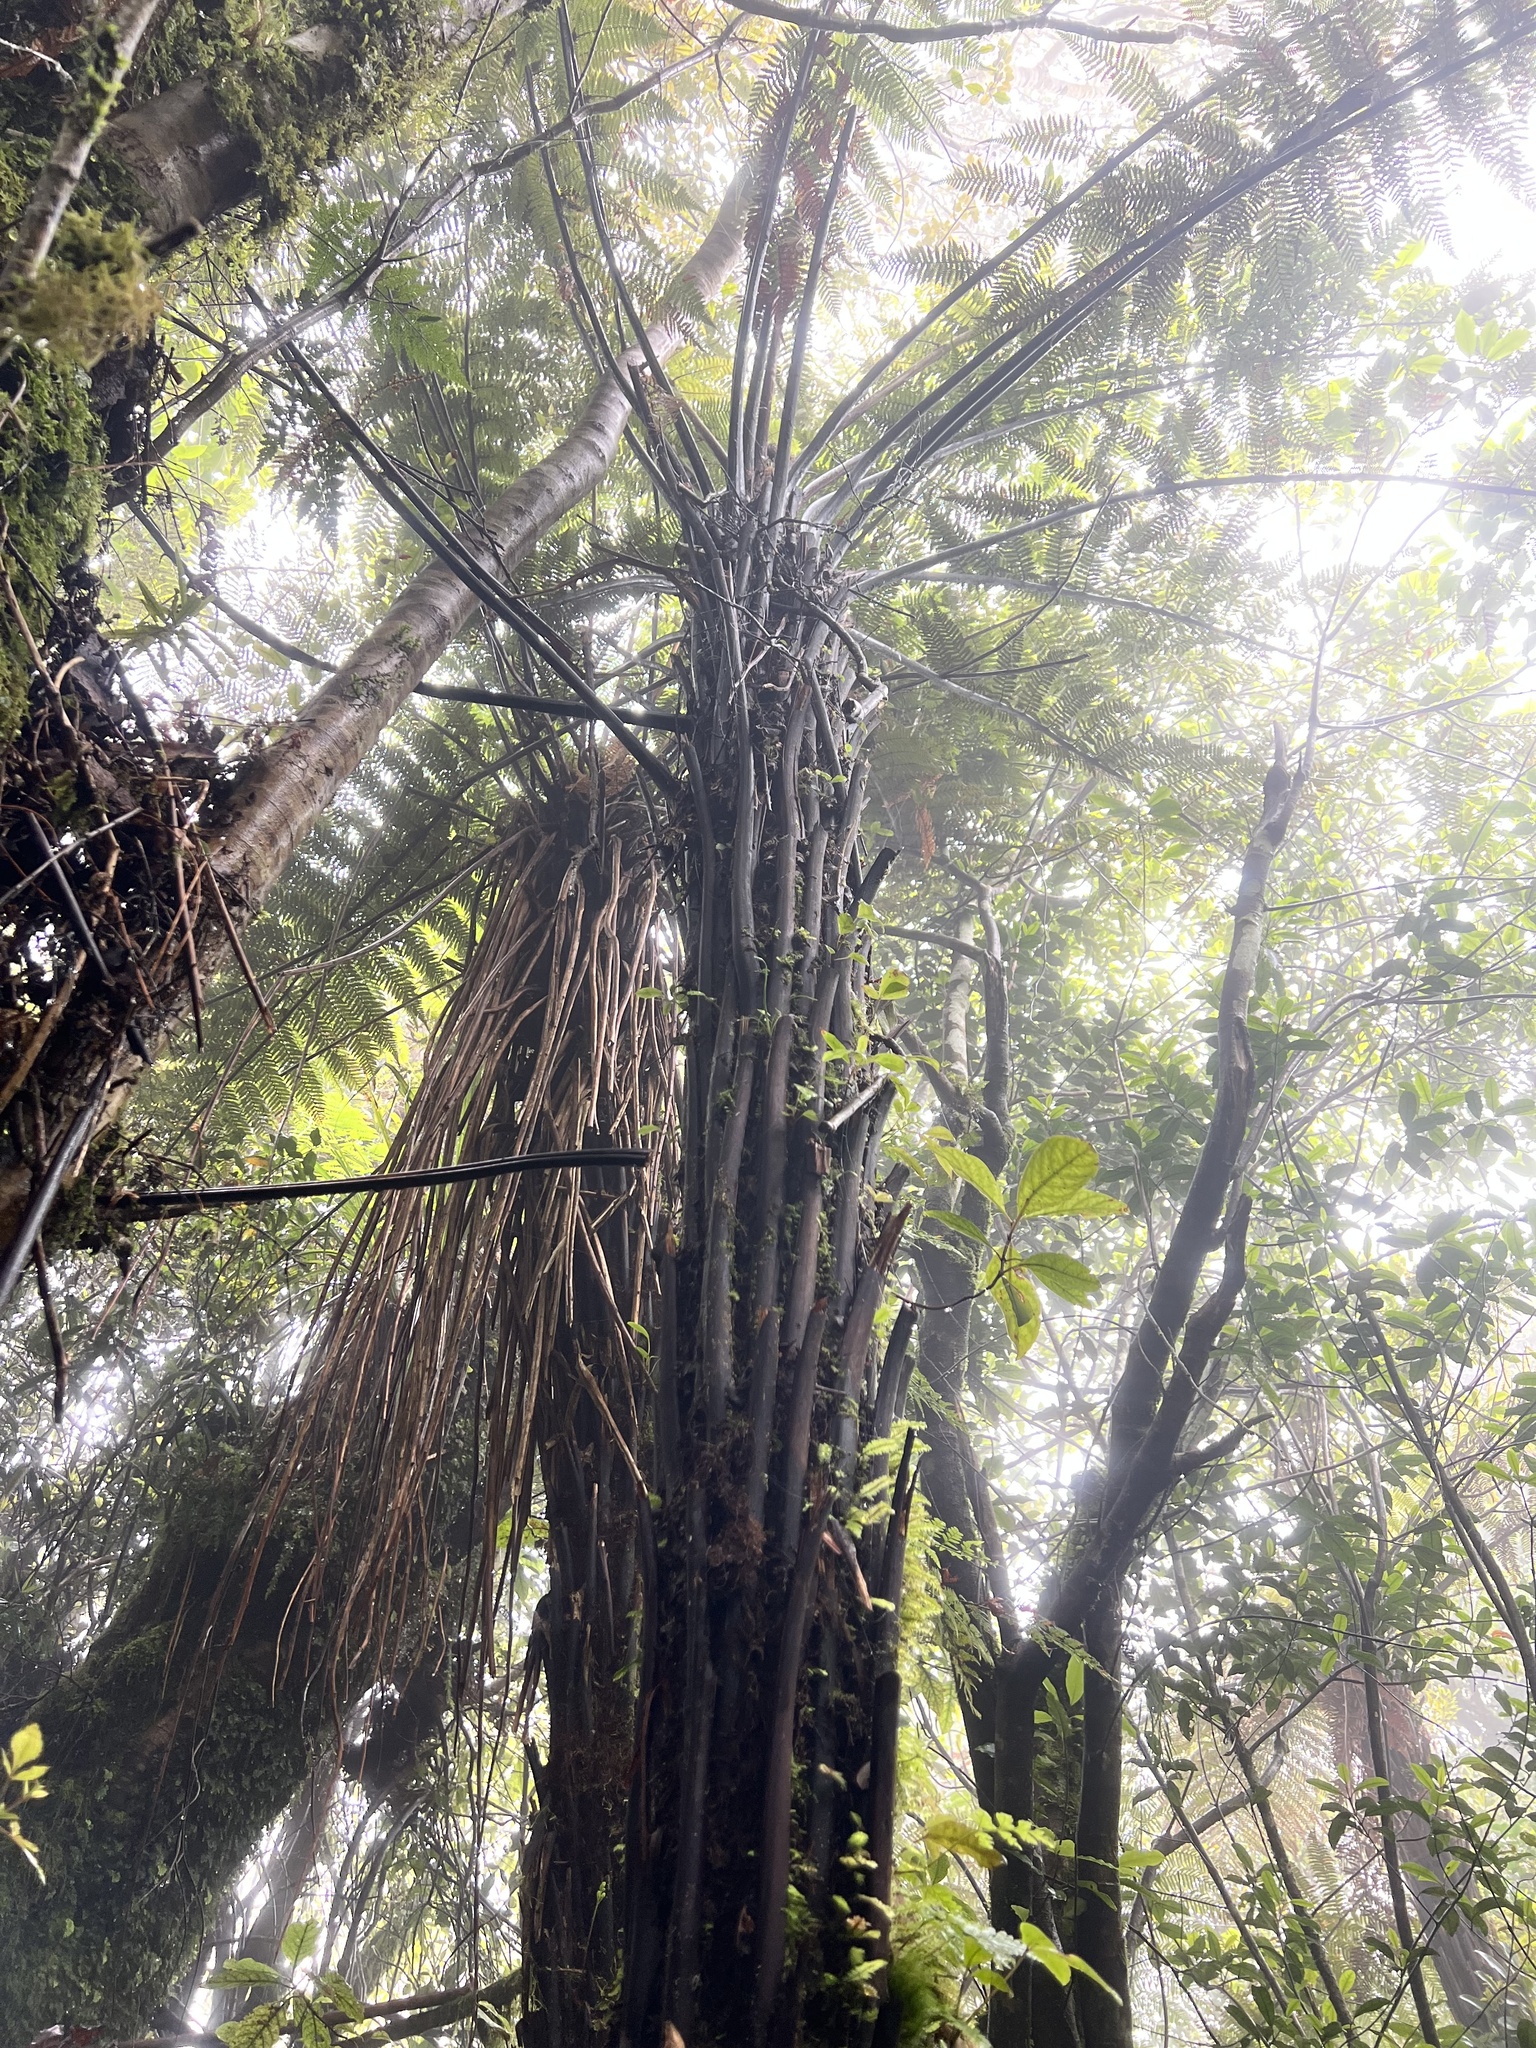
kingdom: Plantae
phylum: Tracheophyta
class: Polypodiopsida
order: Cyatheales
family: Dicksoniaceae
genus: Dicksonia
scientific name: Dicksonia squarrosa
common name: Hard treefern
